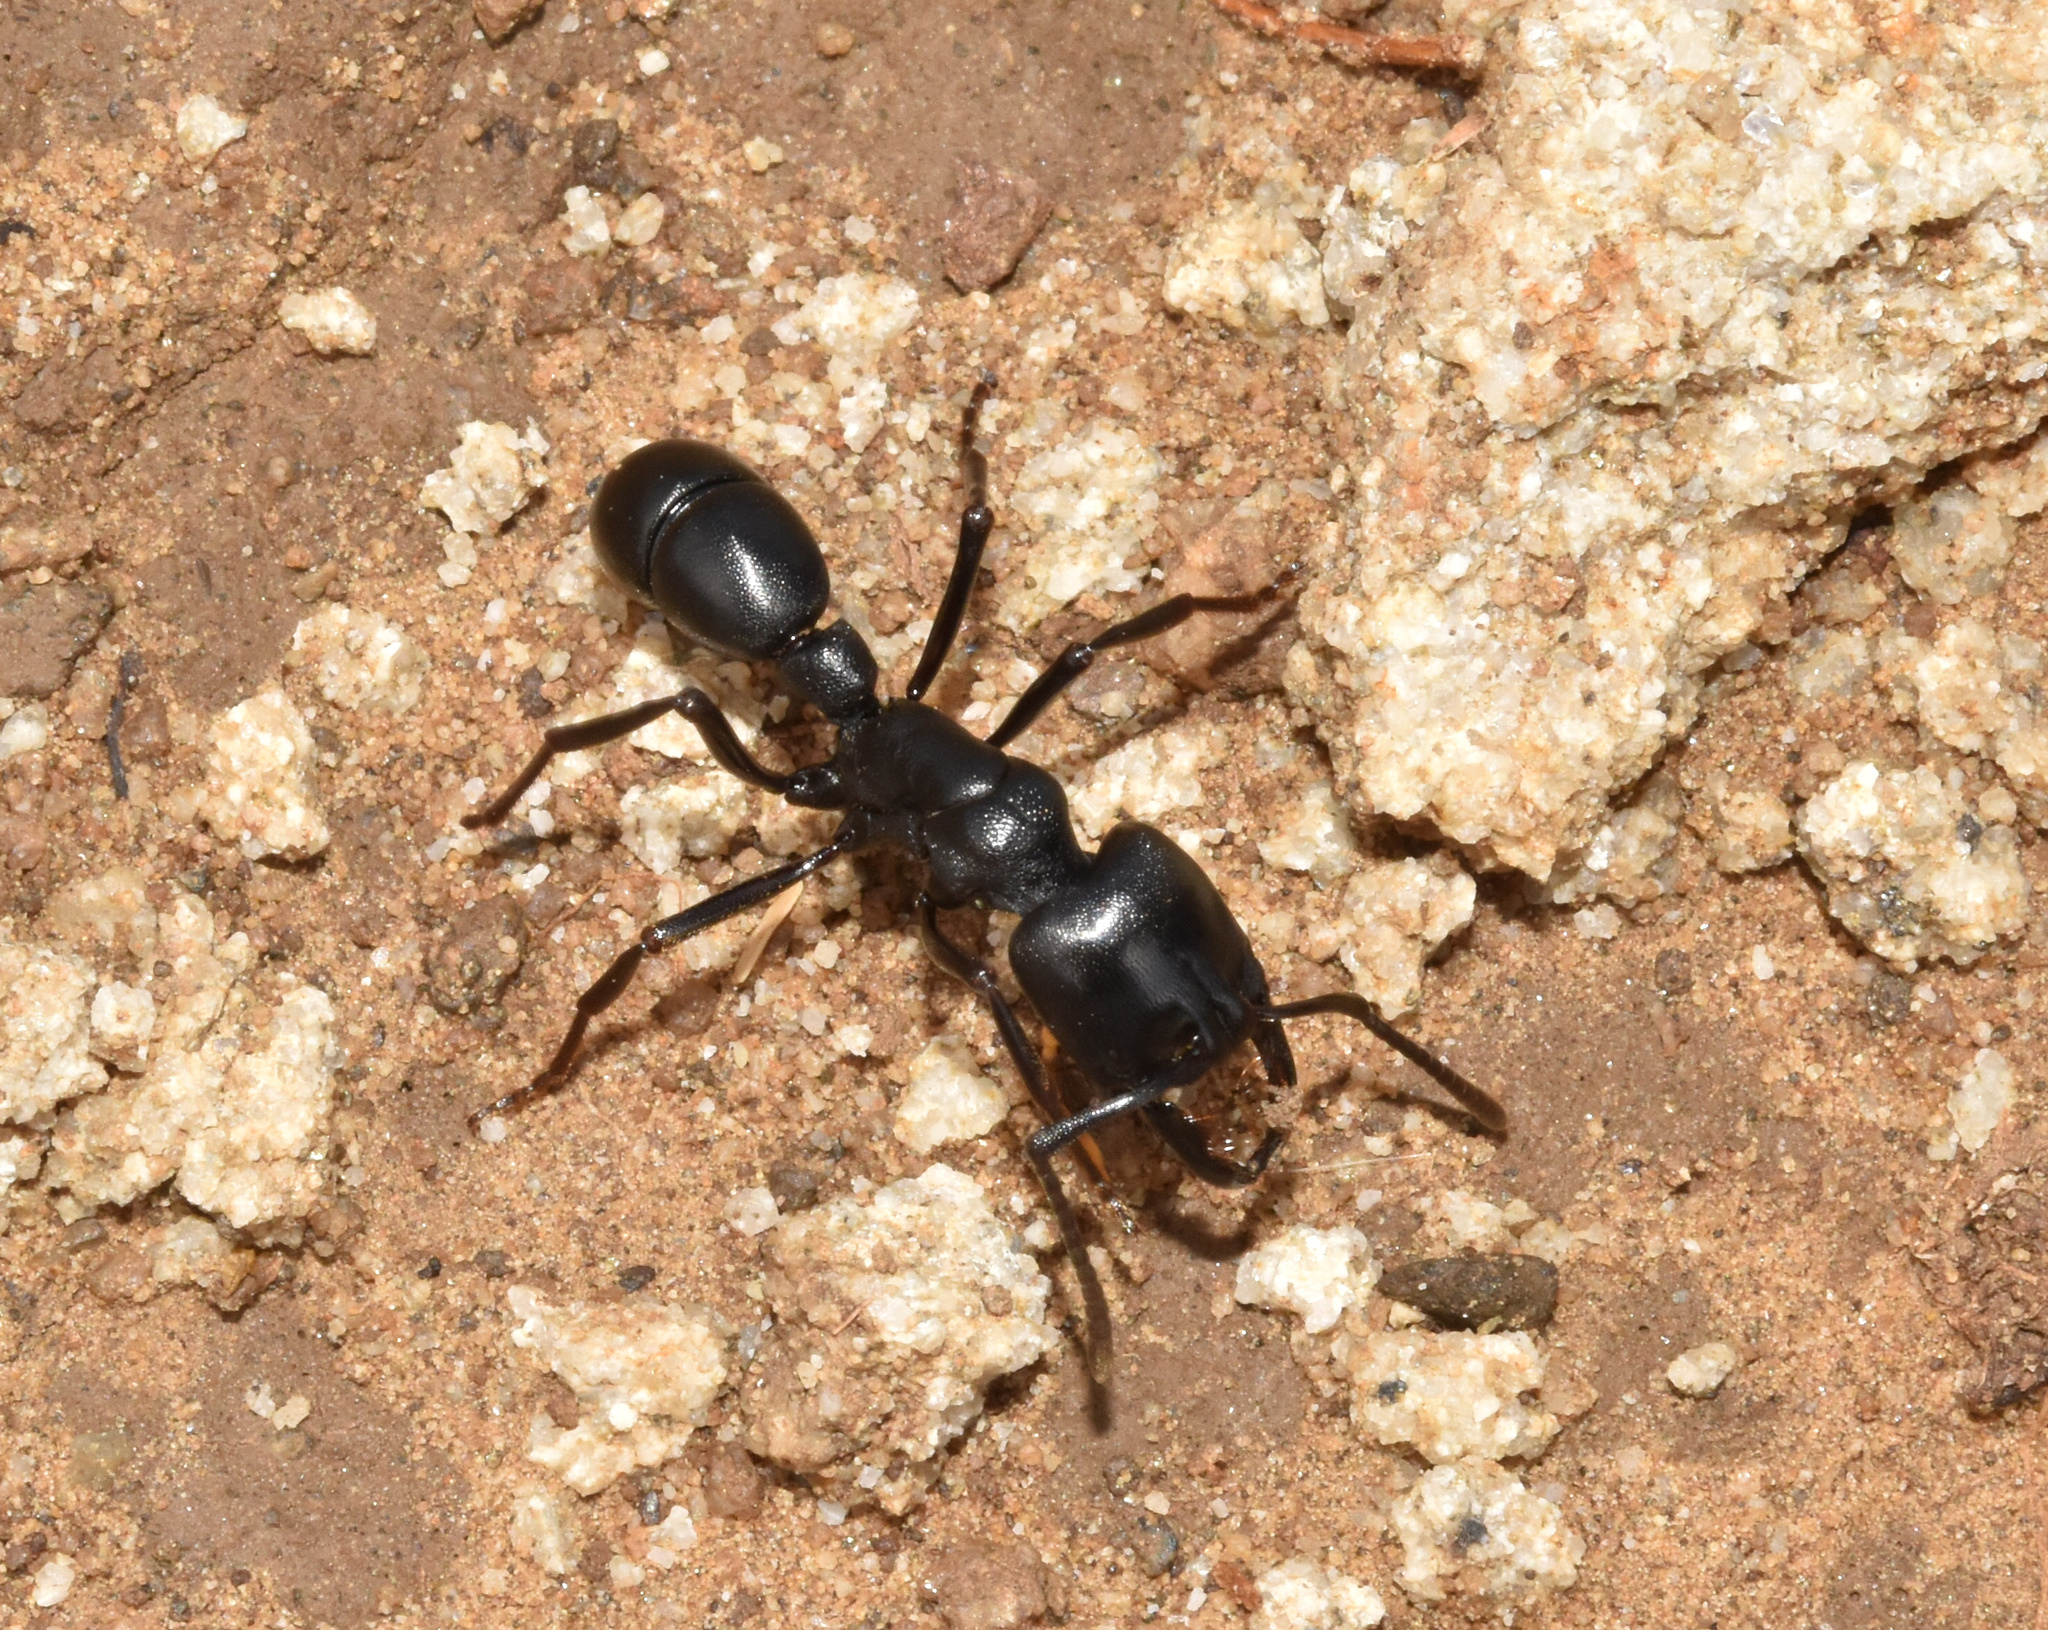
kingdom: Animalia
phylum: Arthropoda
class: Insecta
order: Hymenoptera
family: Formicidae
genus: Plectroctena
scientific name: Plectroctena mandibularis
